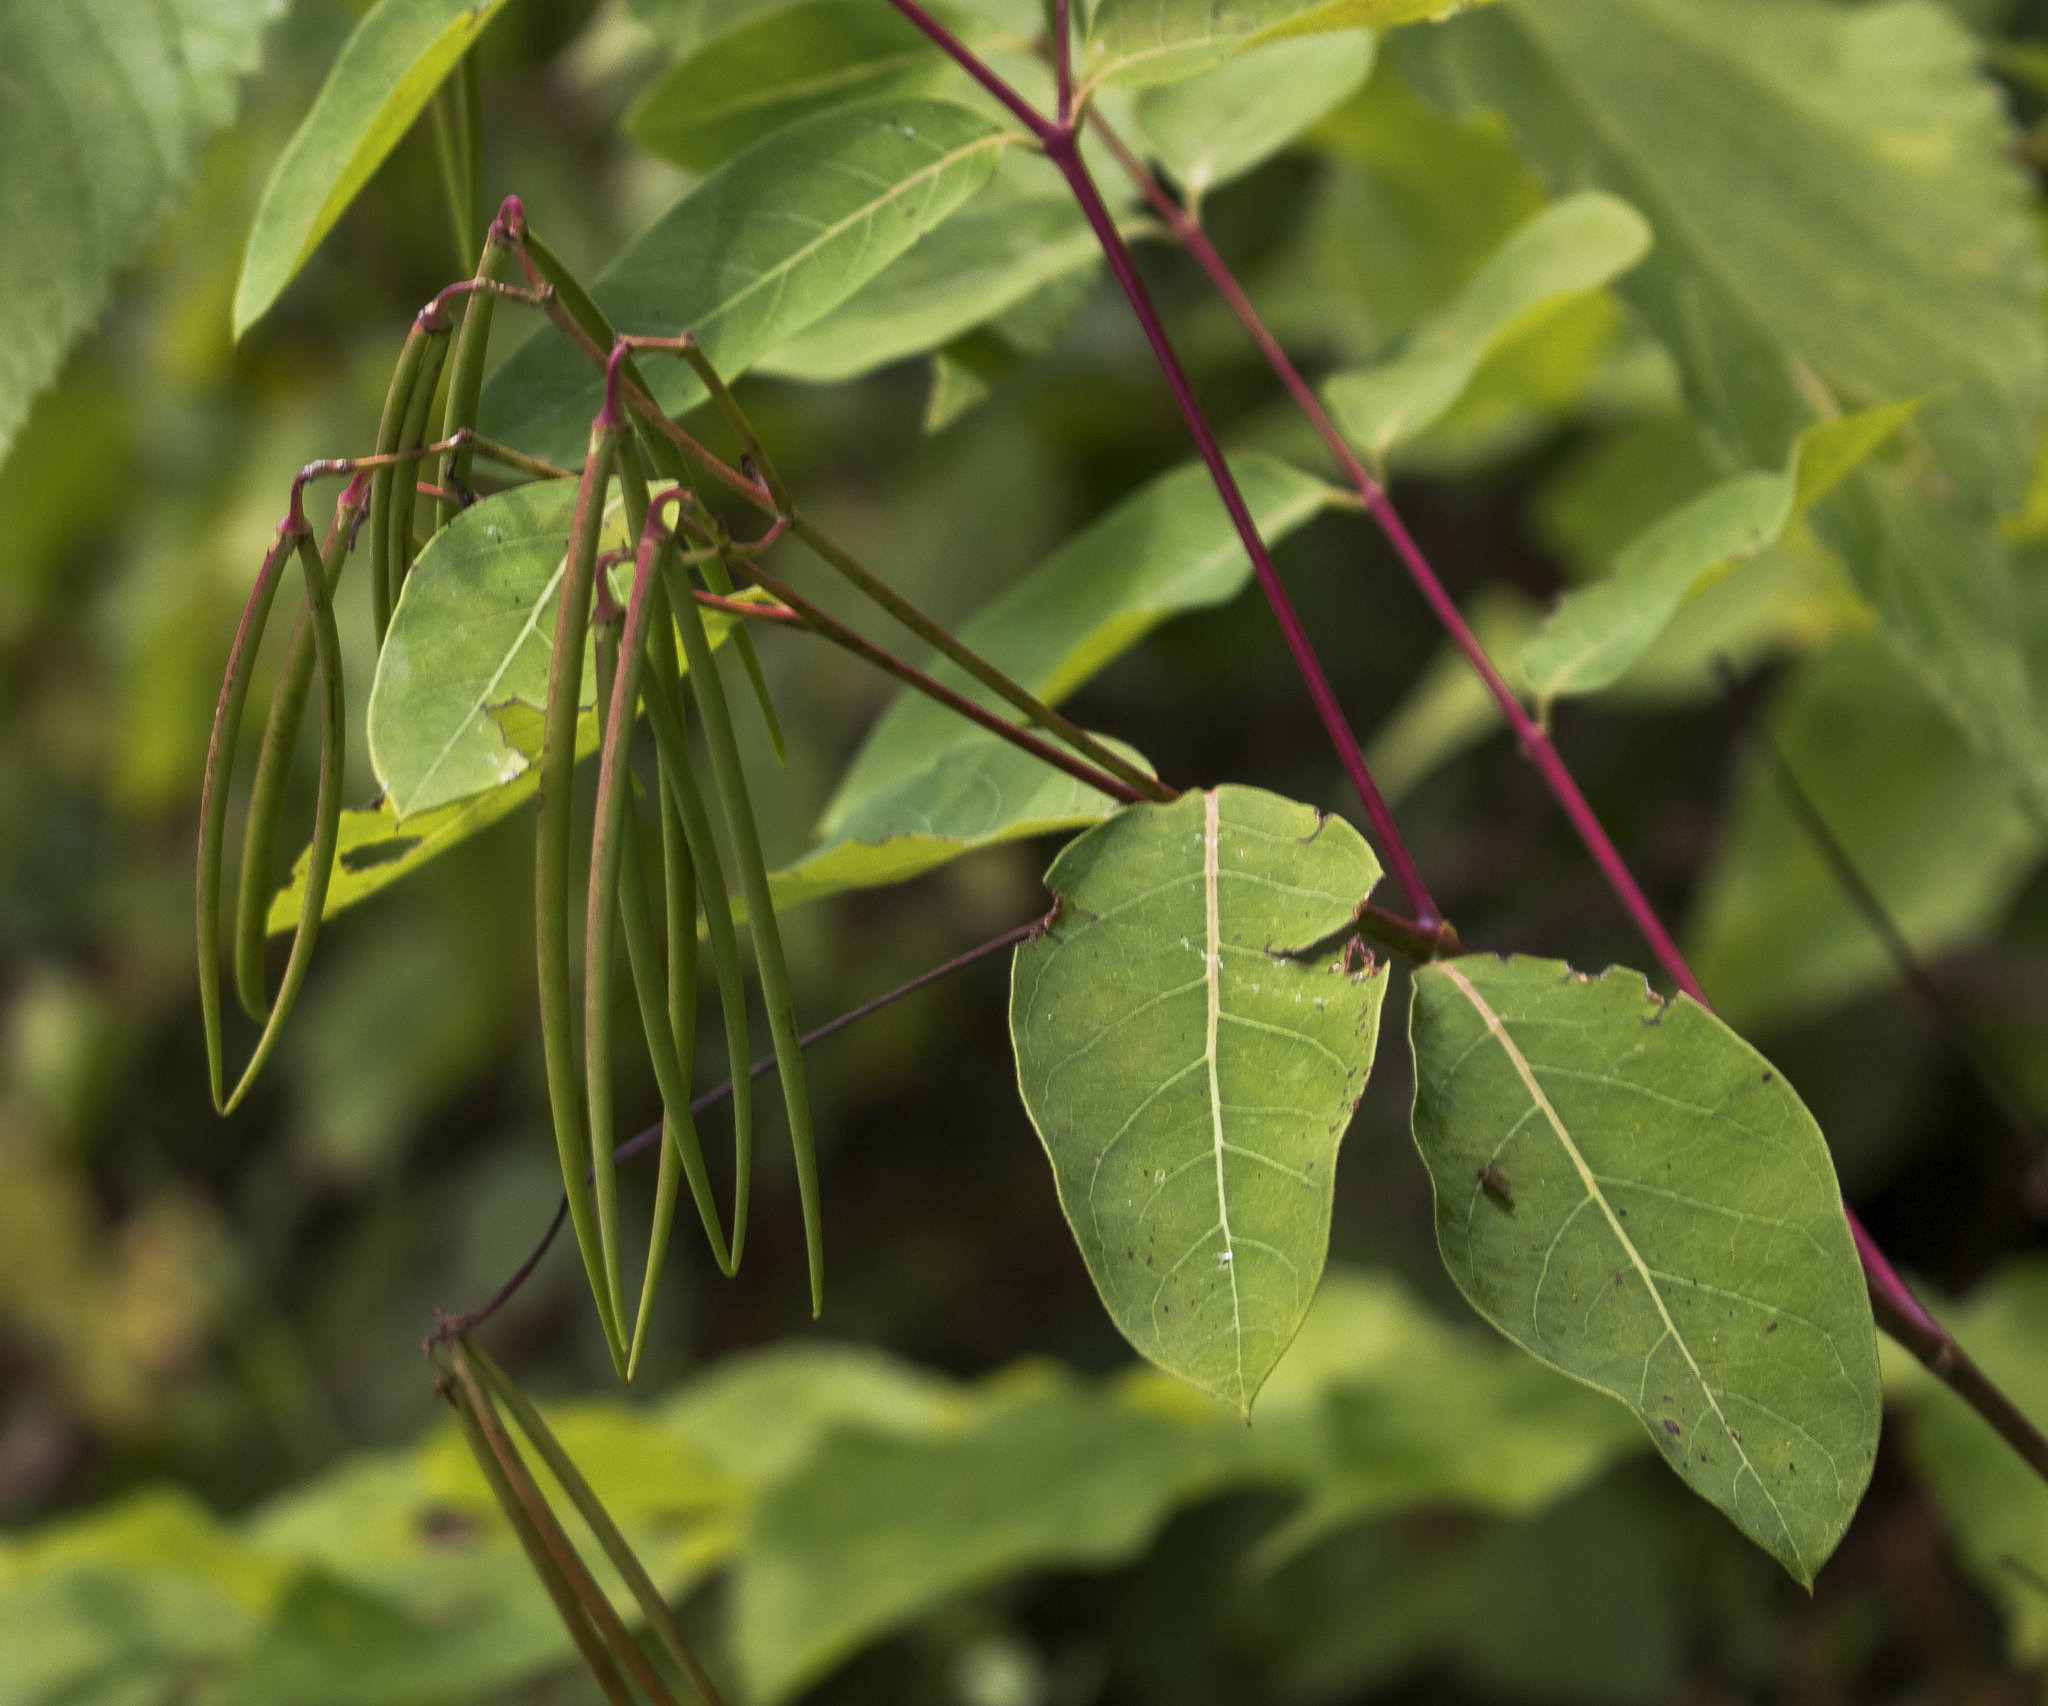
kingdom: Plantae
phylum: Tracheophyta
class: Magnoliopsida
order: Gentianales
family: Apocynaceae
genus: Apocynum
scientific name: Apocynum cannabinum
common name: Hemp dogbane
